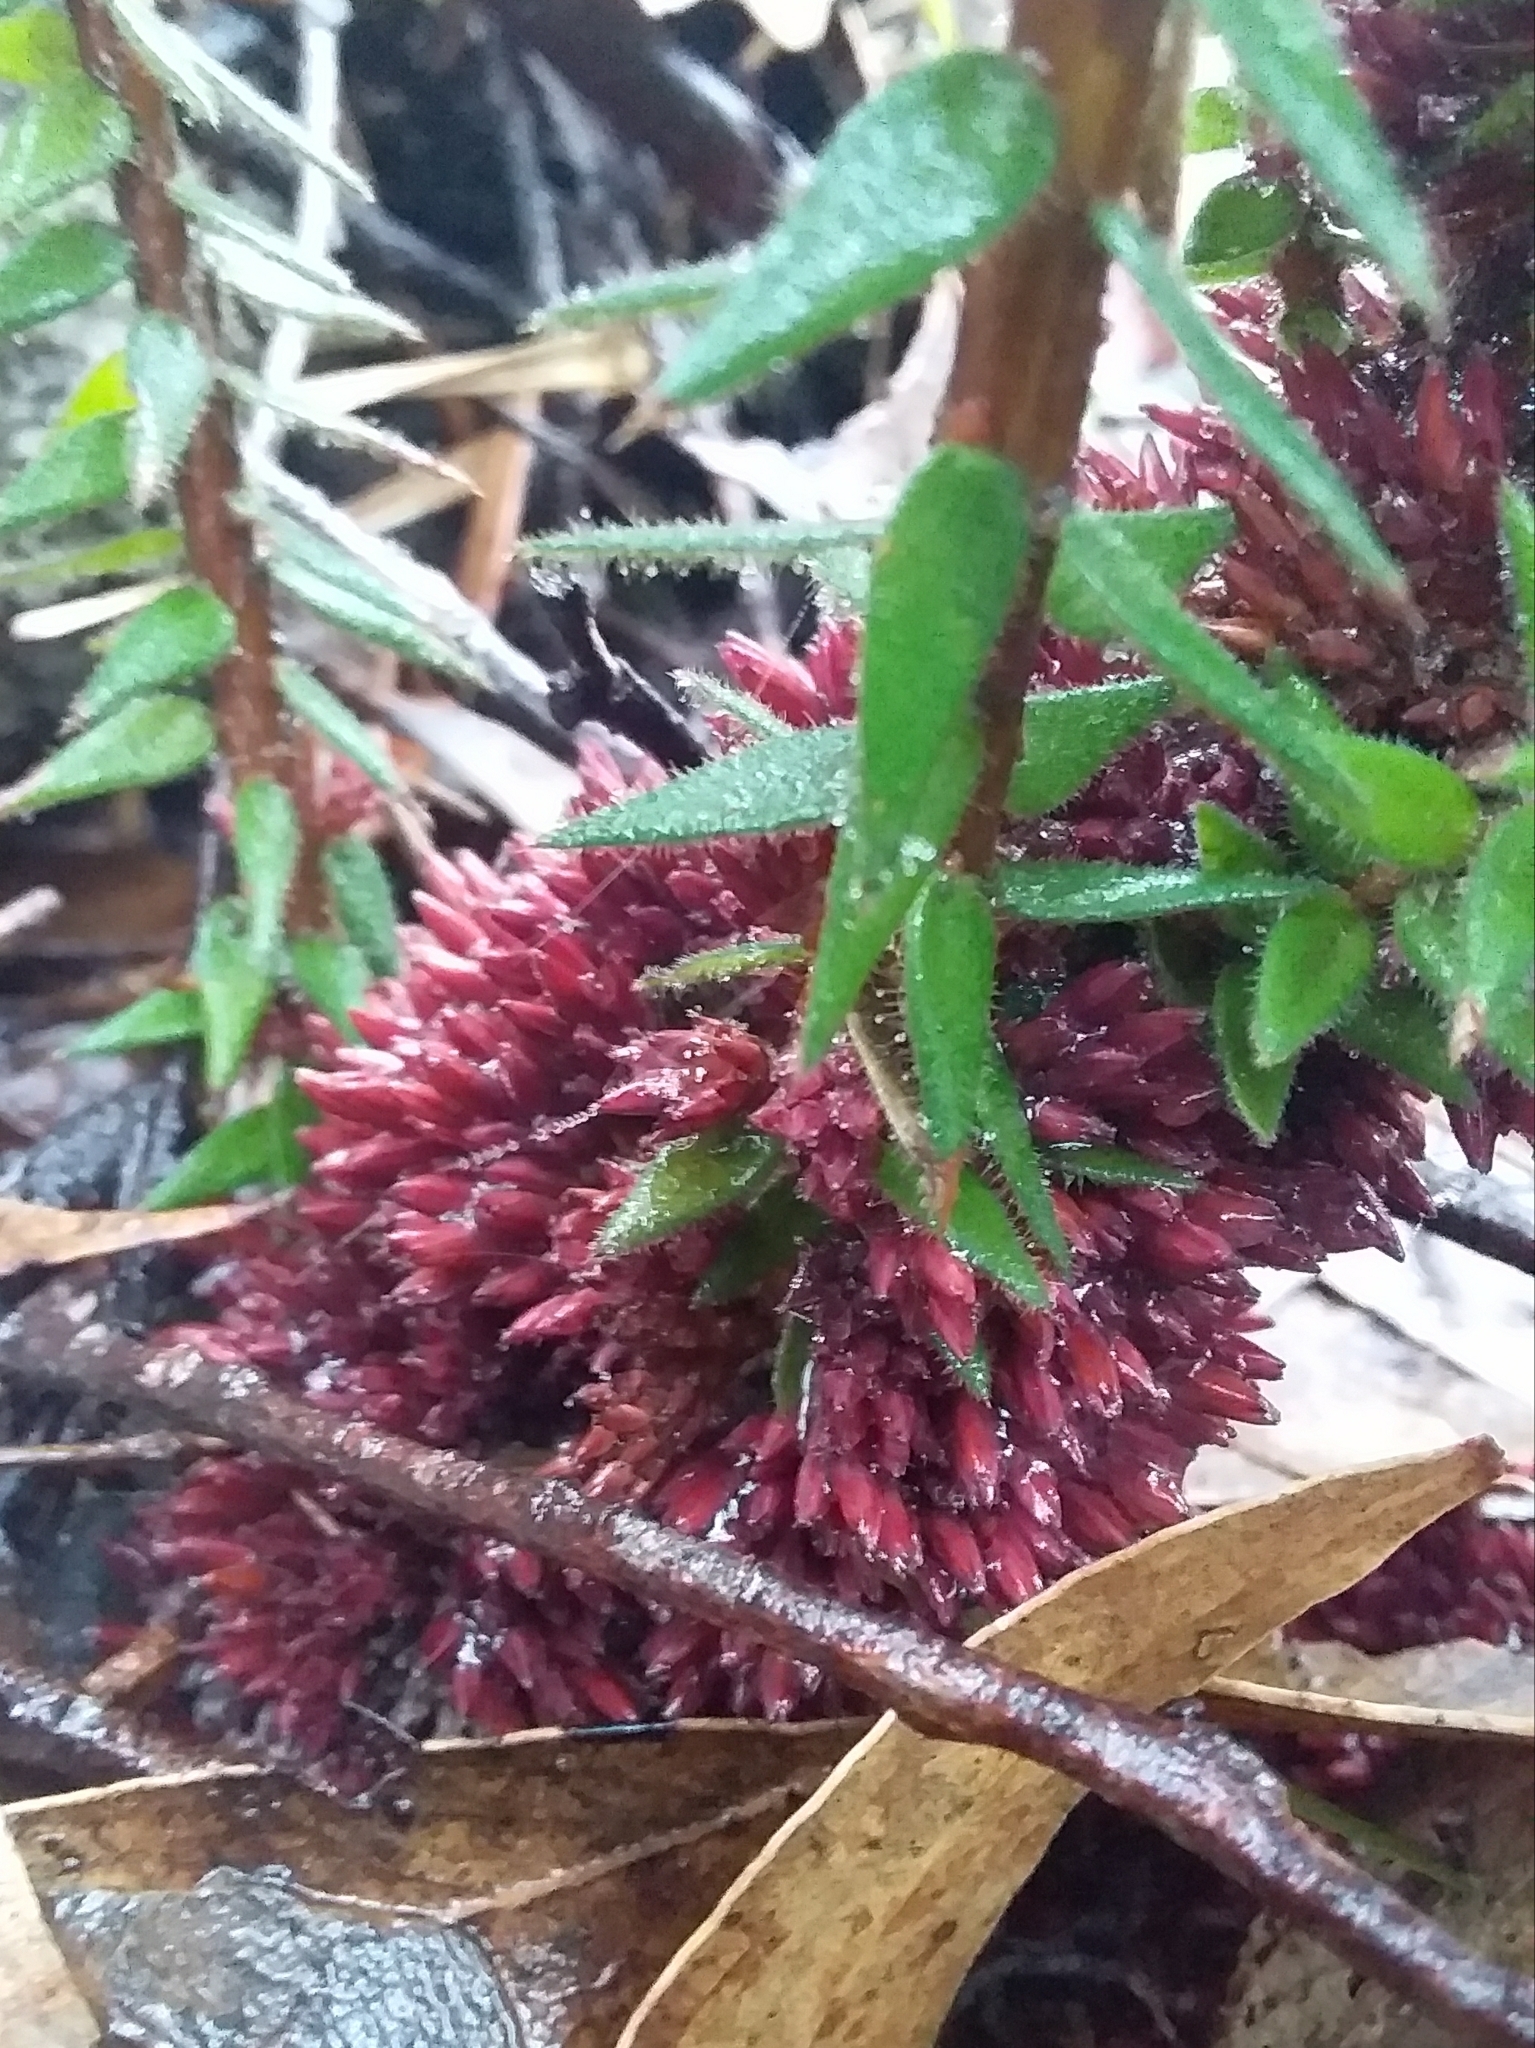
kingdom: Plantae
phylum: Tracheophyta
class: Magnoliopsida
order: Ericales
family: Ericaceae
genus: Acrotriche
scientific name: Acrotriche fasciculiflora
